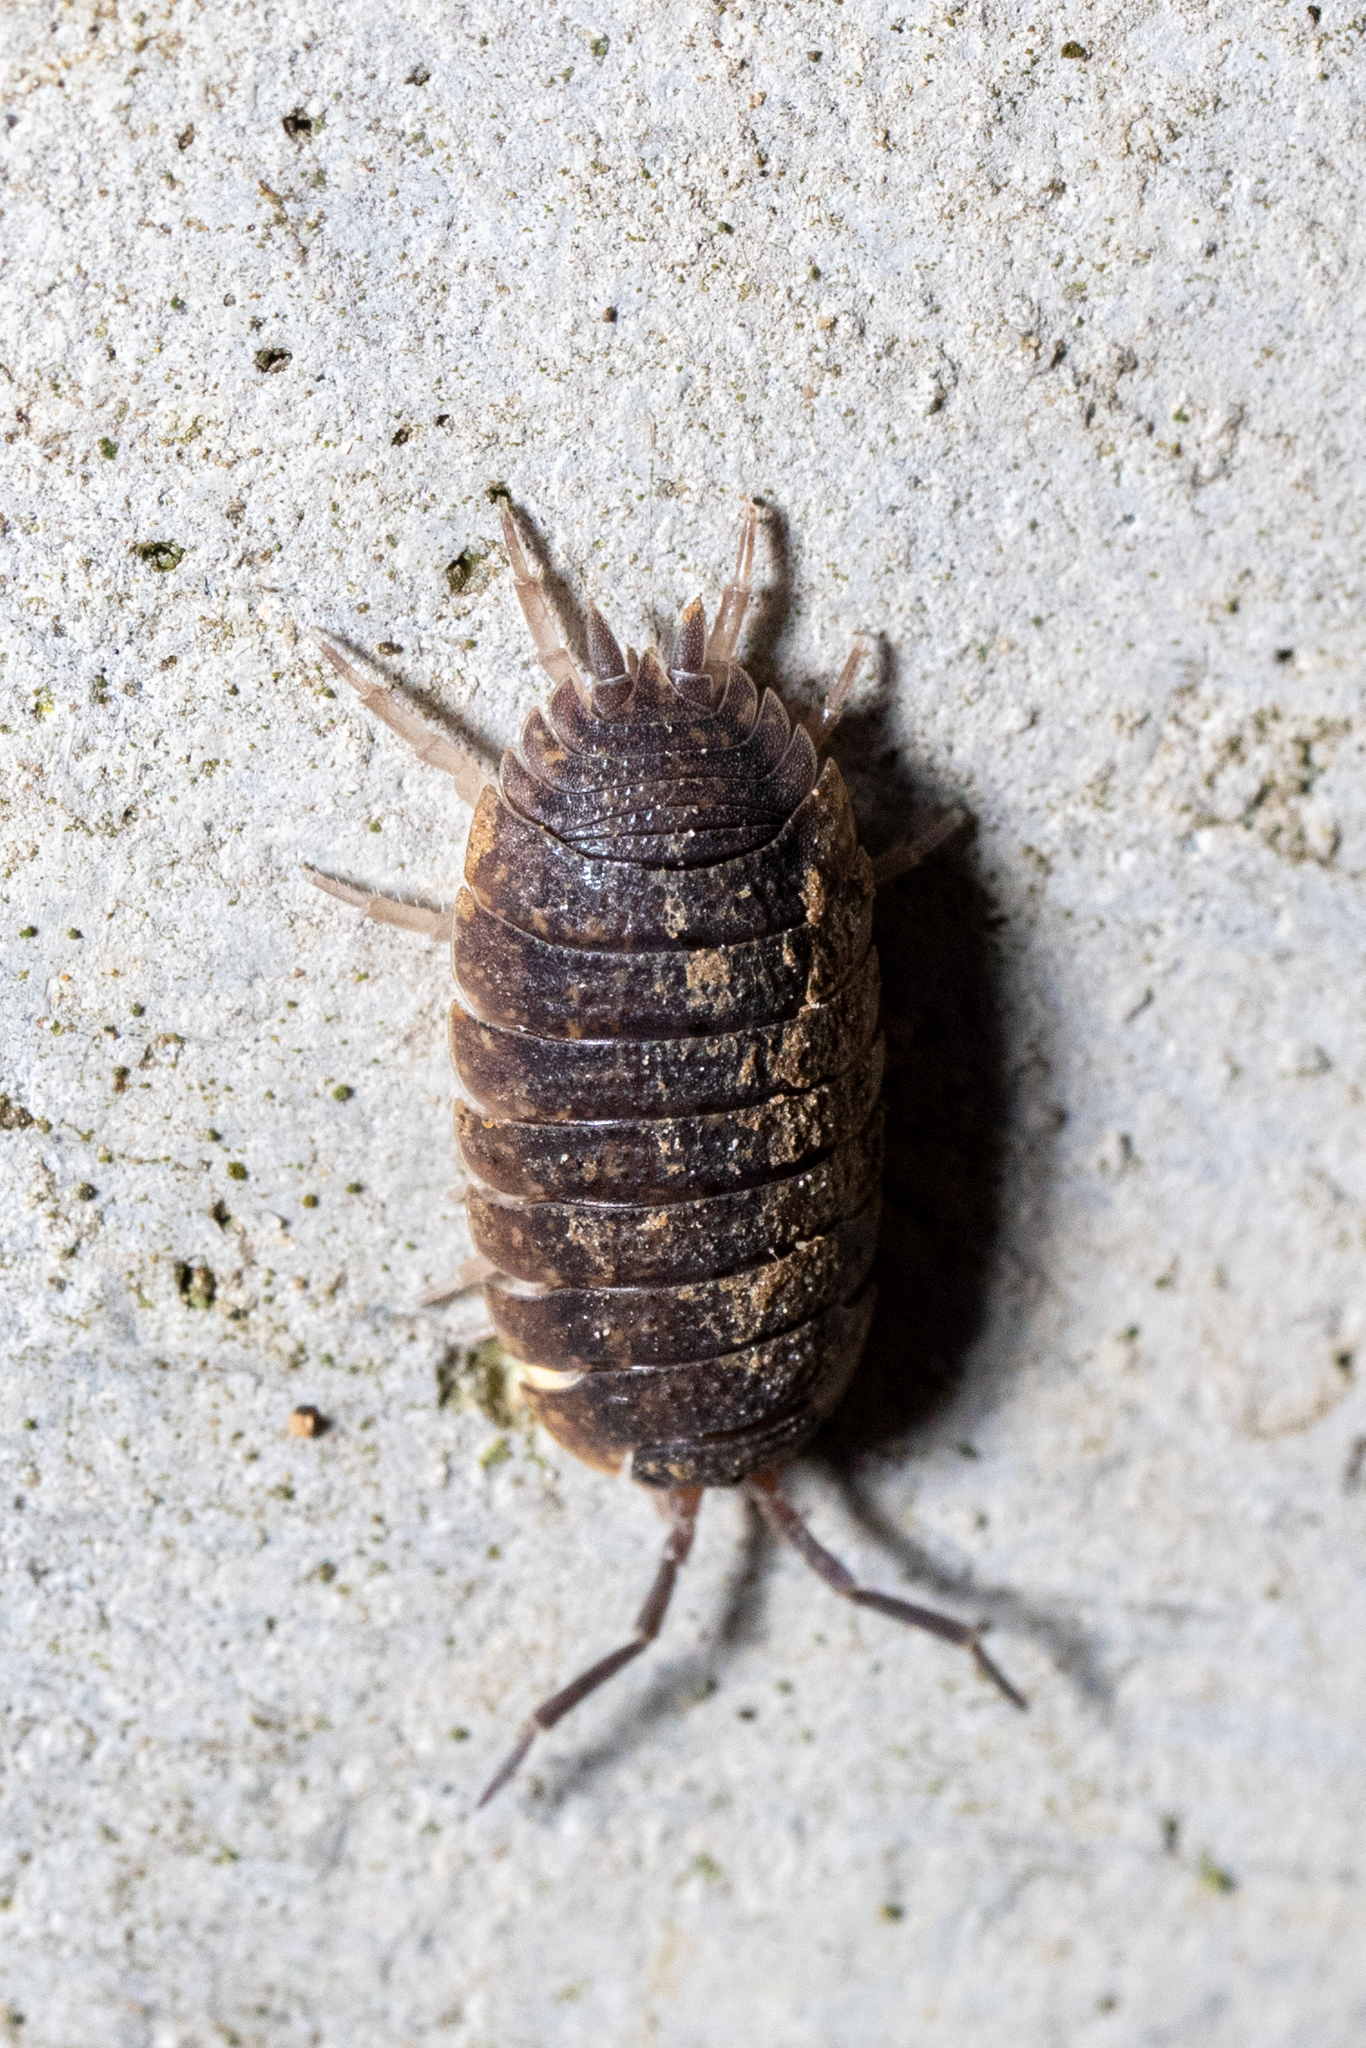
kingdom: Animalia
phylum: Arthropoda
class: Malacostraca
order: Isopoda
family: Porcellionidae
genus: Porcellio
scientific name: Porcellio scaber
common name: Common rough woodlouse
